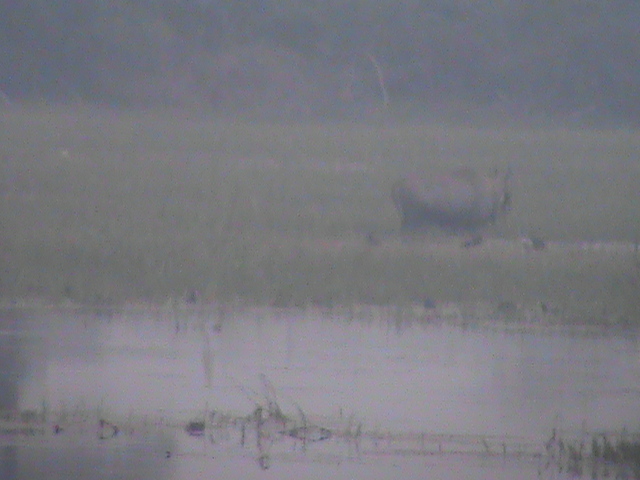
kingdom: Animalia
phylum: Chordata
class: Mammalia
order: Artiodactyla
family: Bovidae
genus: Boselaphus
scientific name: Boselaphus tragocamelus
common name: Nilgai
